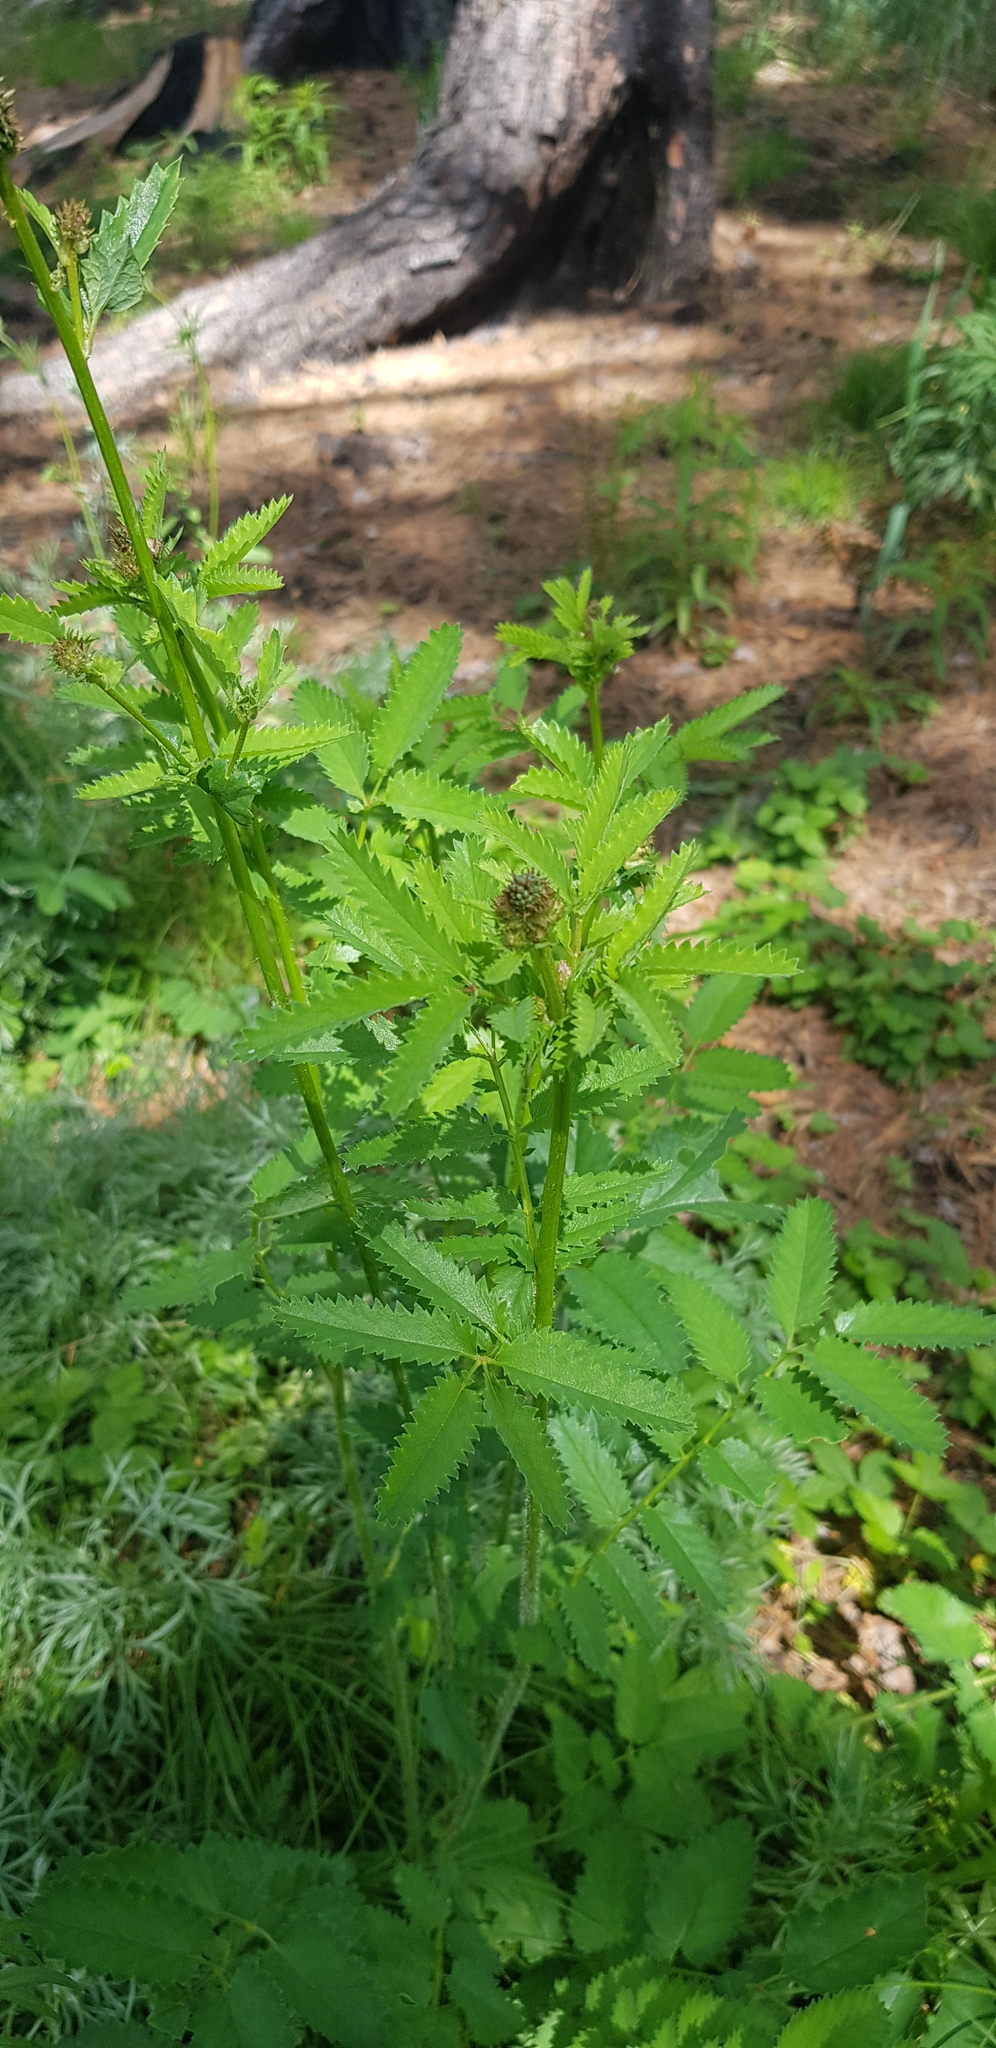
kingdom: Plantae
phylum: Tracheophyta
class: Magnoliopsida
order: Rosales
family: Rosaceae
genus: Sanguisorba
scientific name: Sanguisorba officinalis
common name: Great burnet
